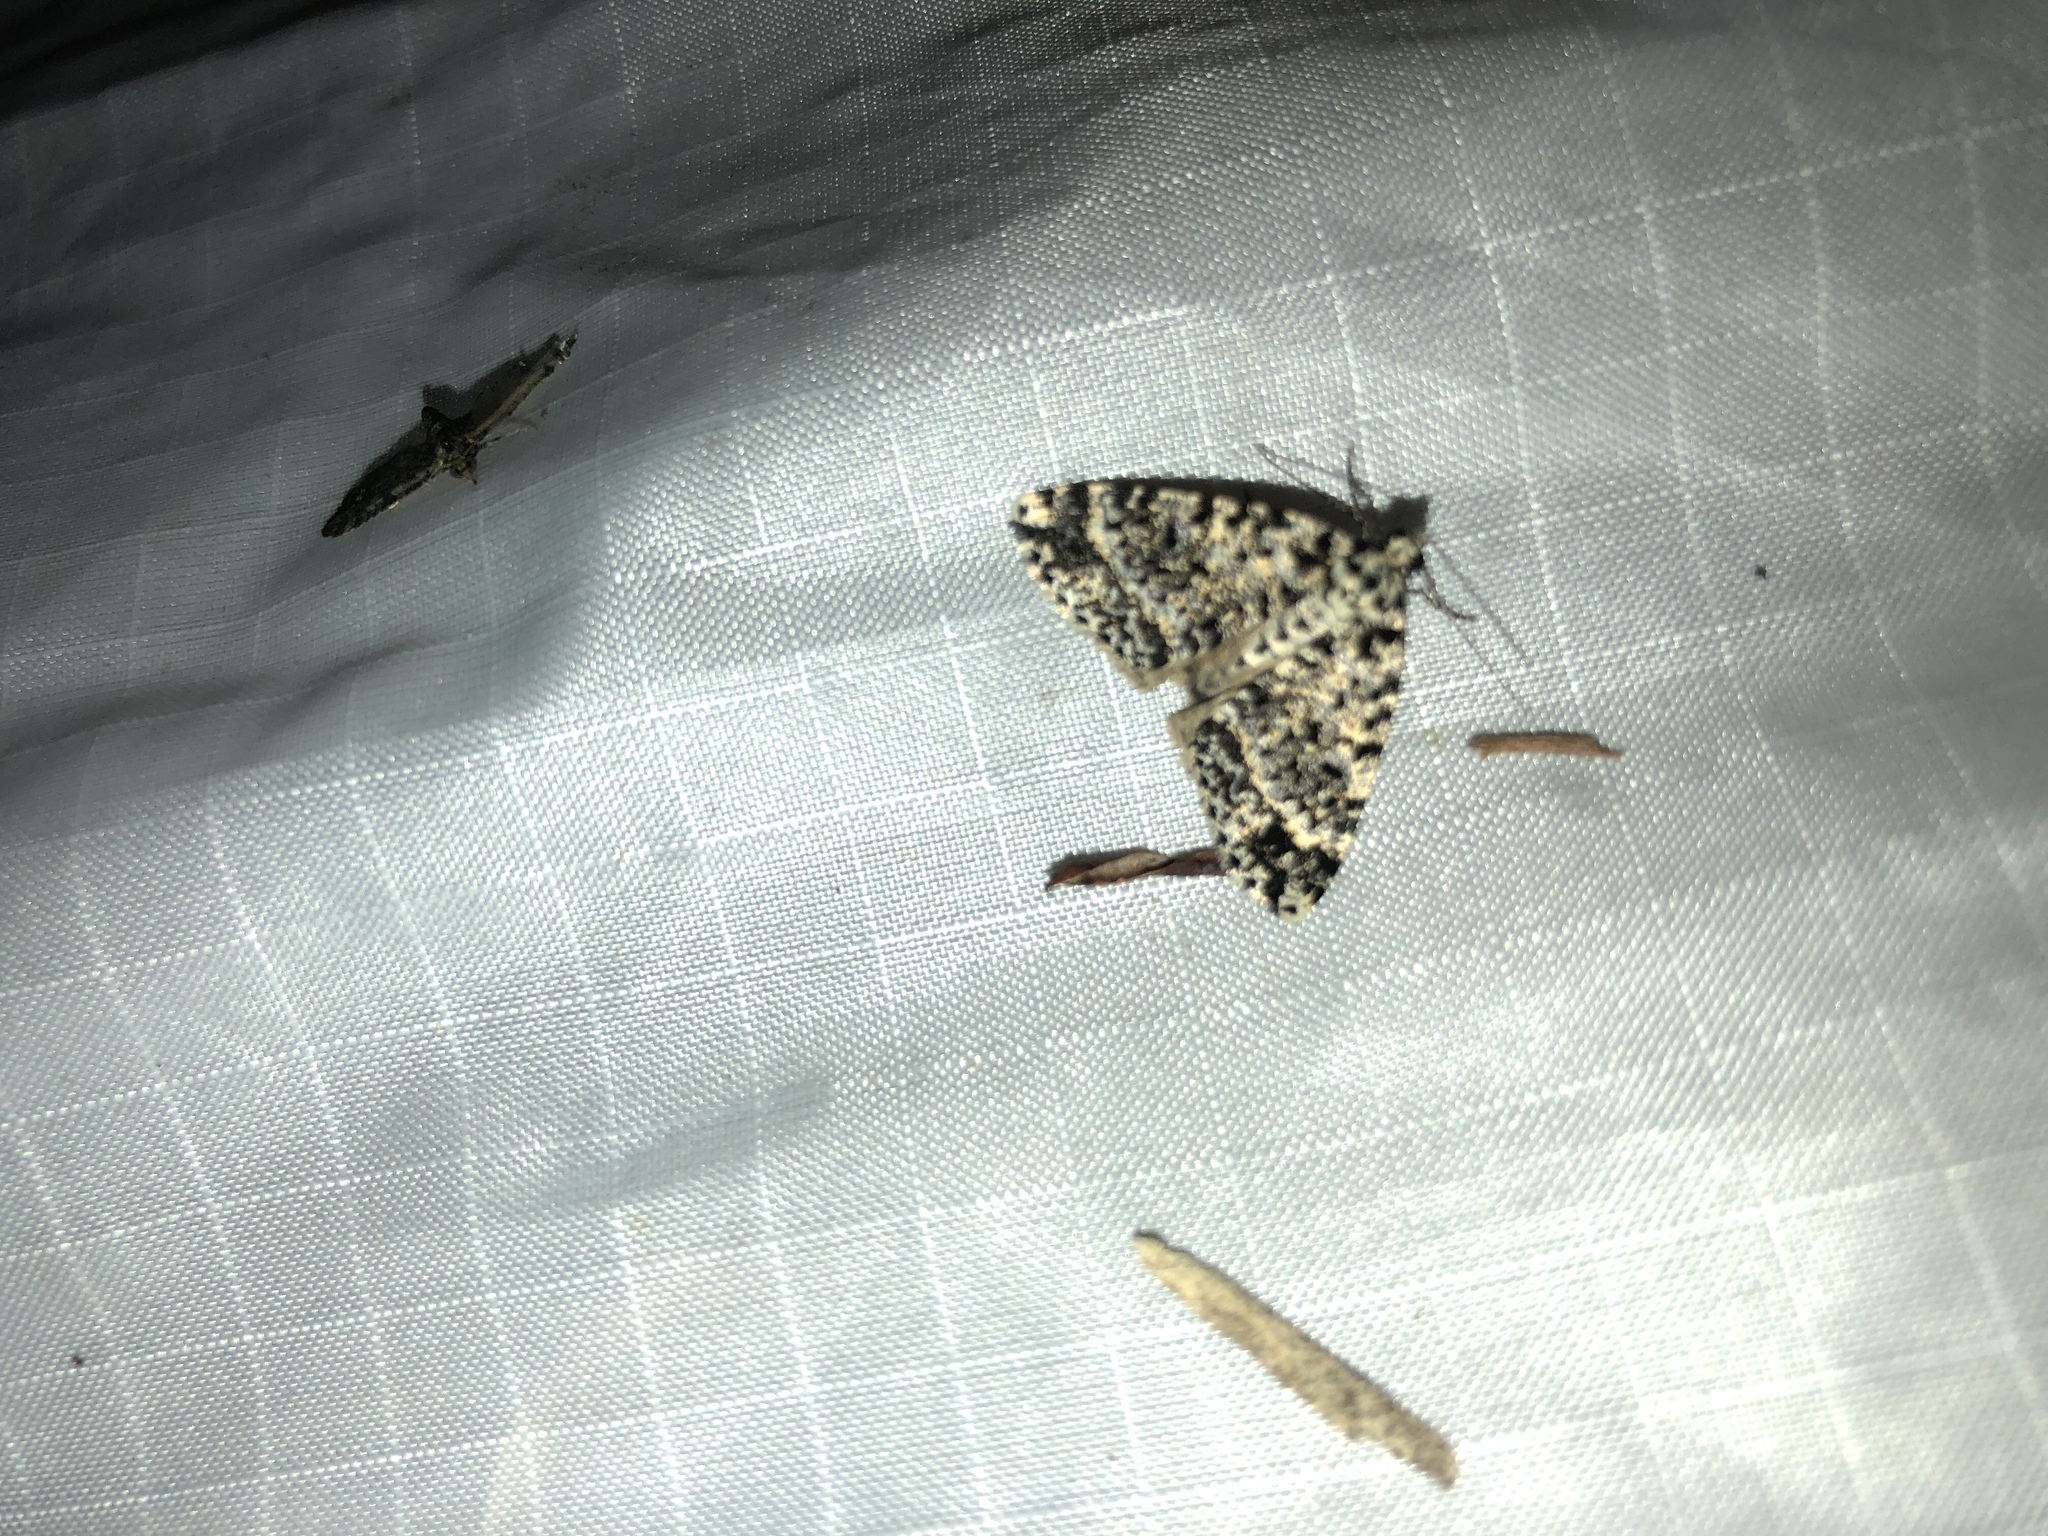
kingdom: Animalia
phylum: Arthropoda
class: Insecta
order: Lepidoptera
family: Geometridae
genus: Pseudocoremia
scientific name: Pseudocoremia monacha
